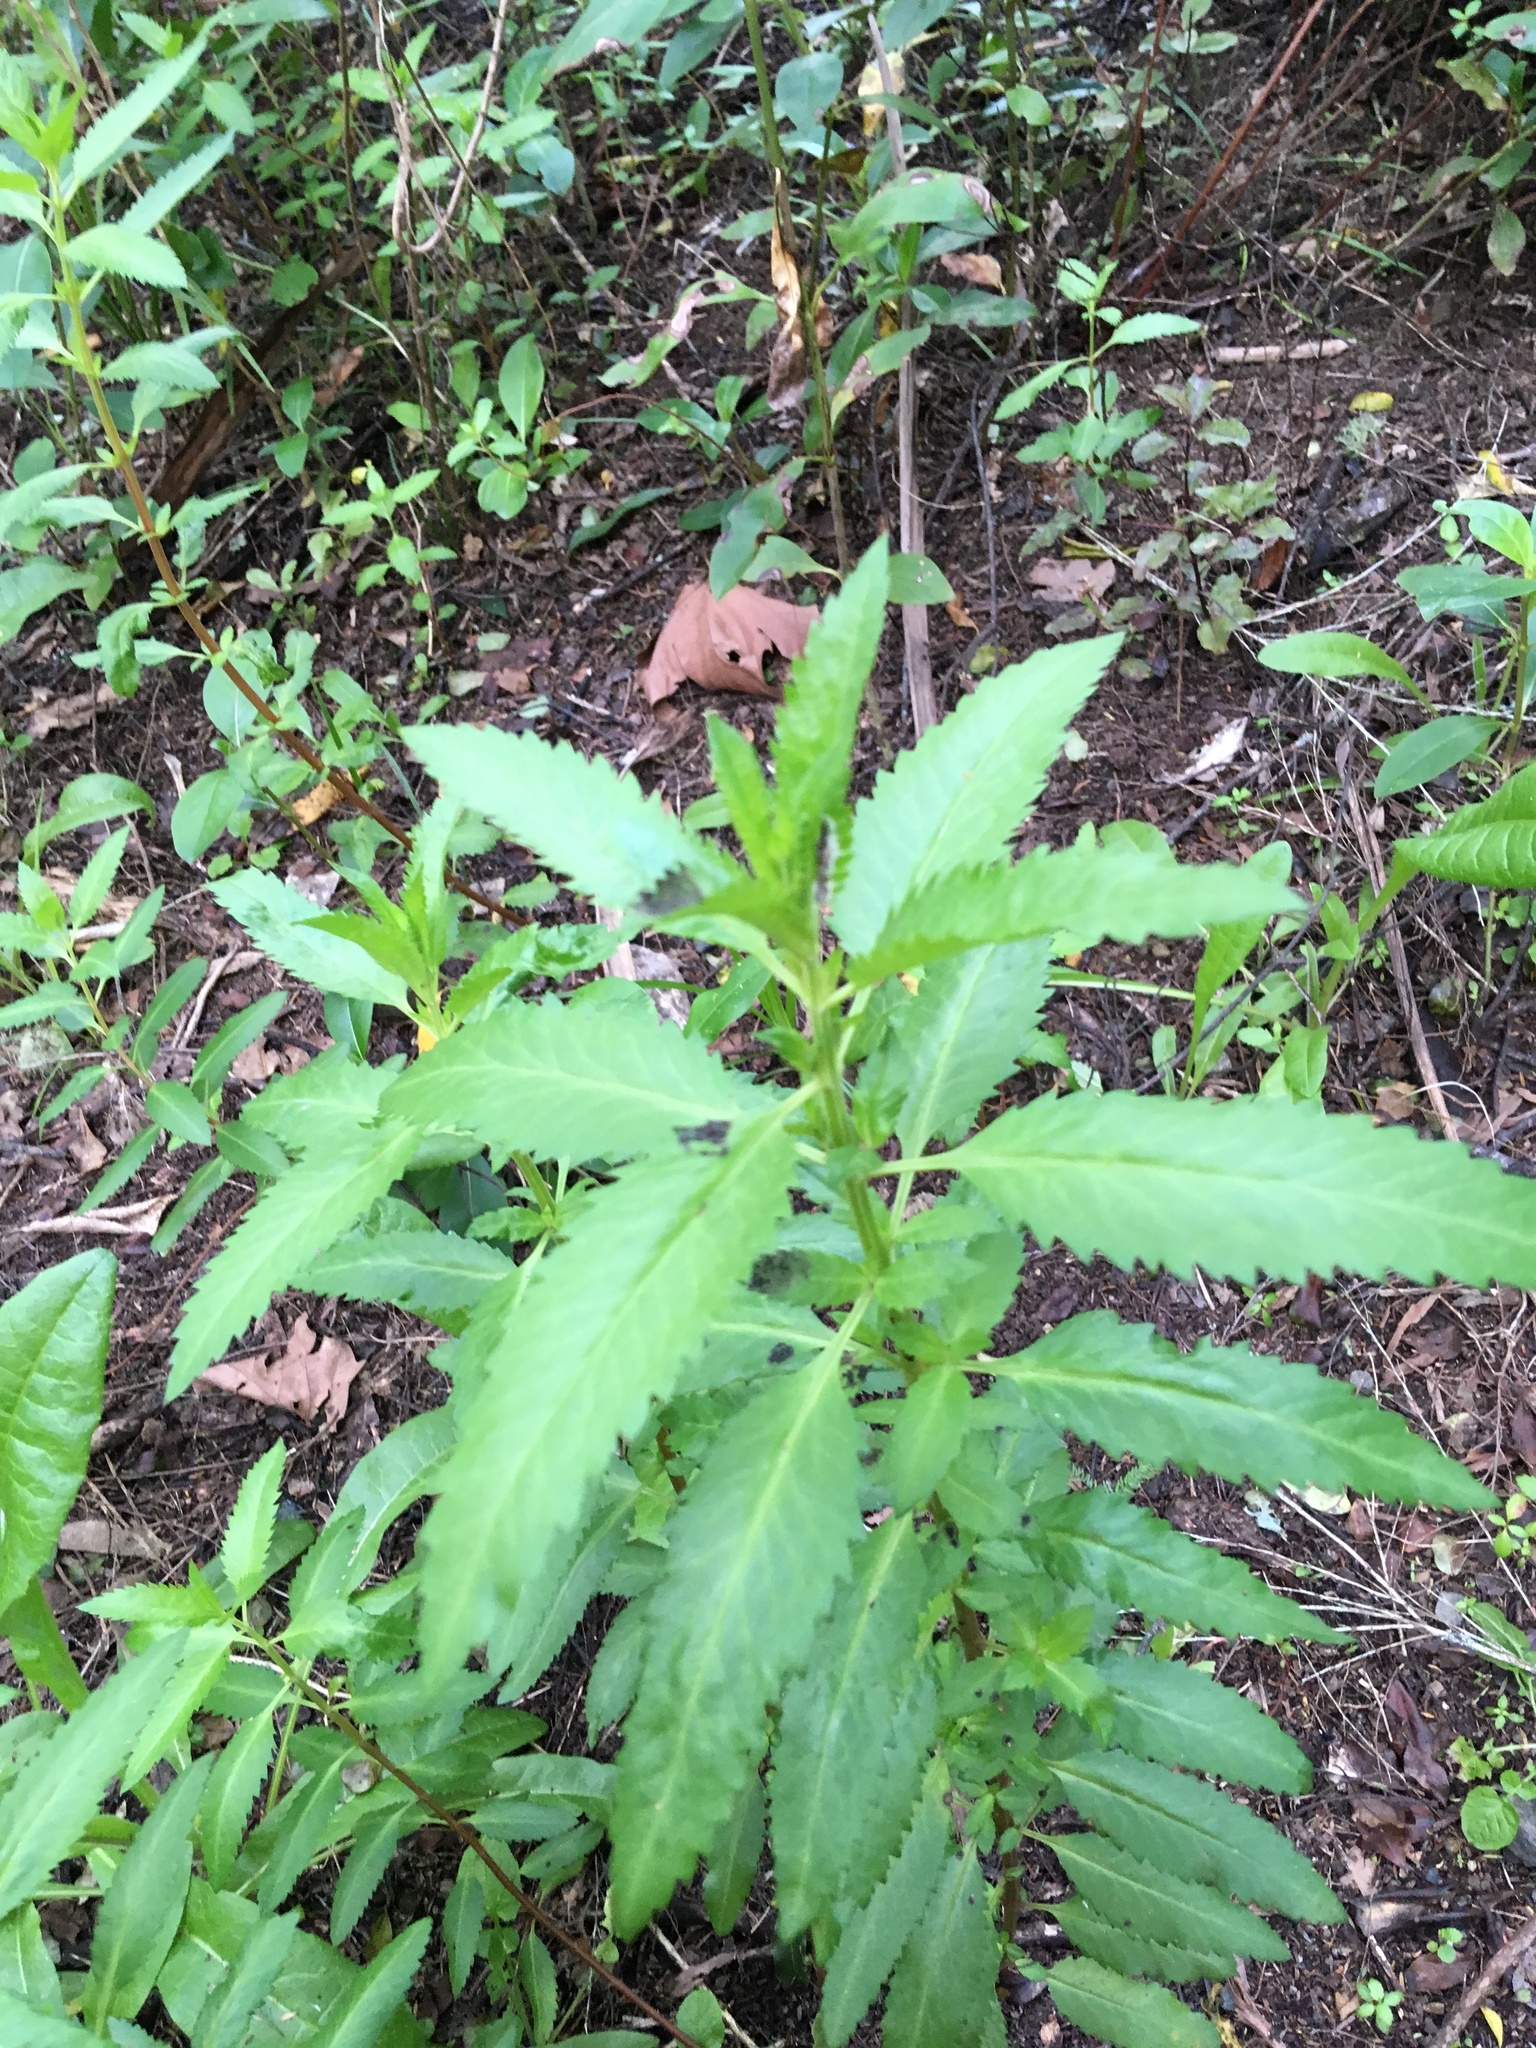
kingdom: Plantae
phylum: Tracheophyta
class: Magnoliopsida
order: Saxifragales
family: Haloragaceae
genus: Haloragis
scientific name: Haloragis erecta
